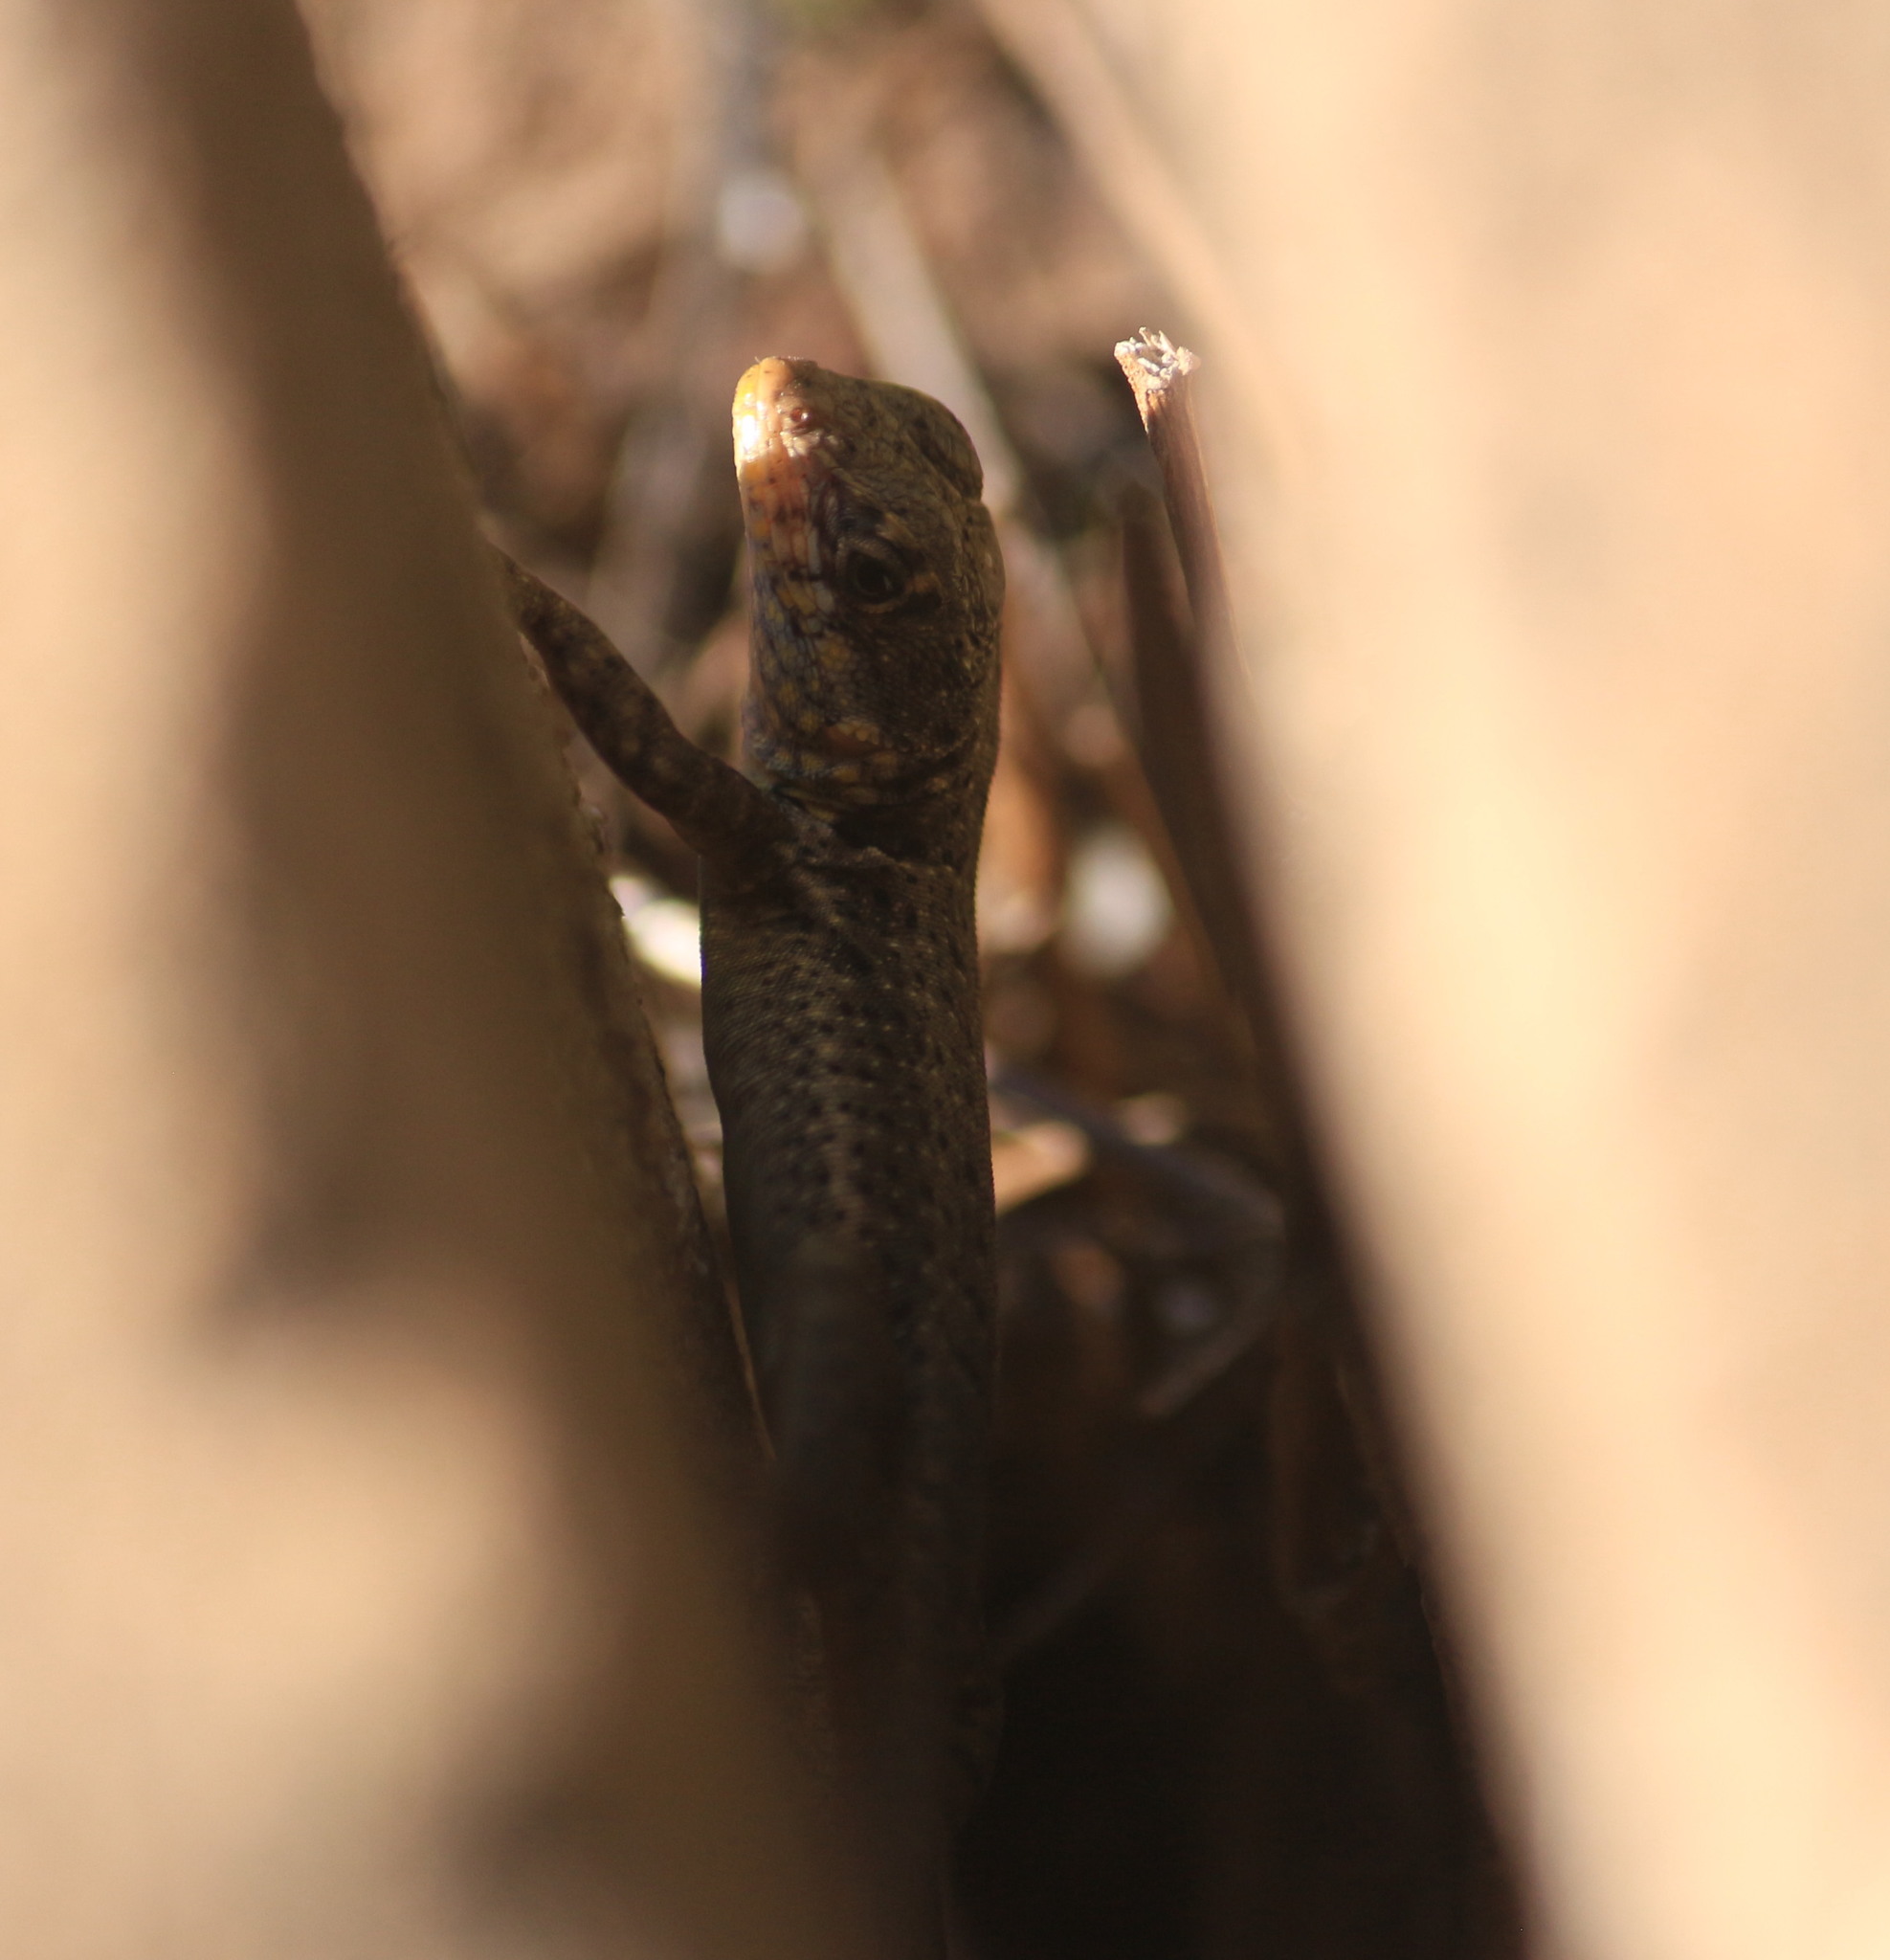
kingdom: Animalia
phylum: Chordata
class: Squamata
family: Tropiduridae
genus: Tropidurus
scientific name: Tropidurus catalanensis
